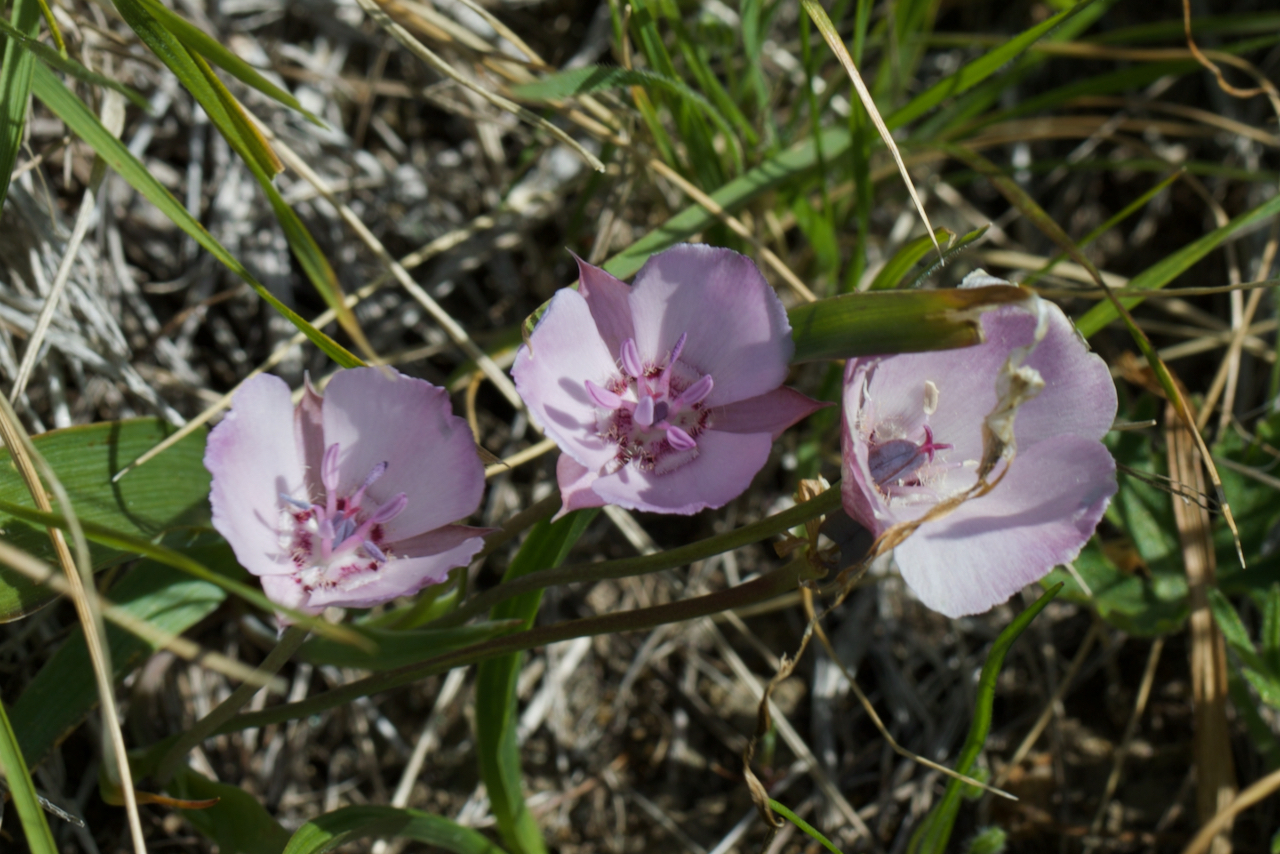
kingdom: Plantae
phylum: Tracheophyta
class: Liliopsida
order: Liliales
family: Liliaceae
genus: Calochortus
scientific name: Calochortus umbellatus
